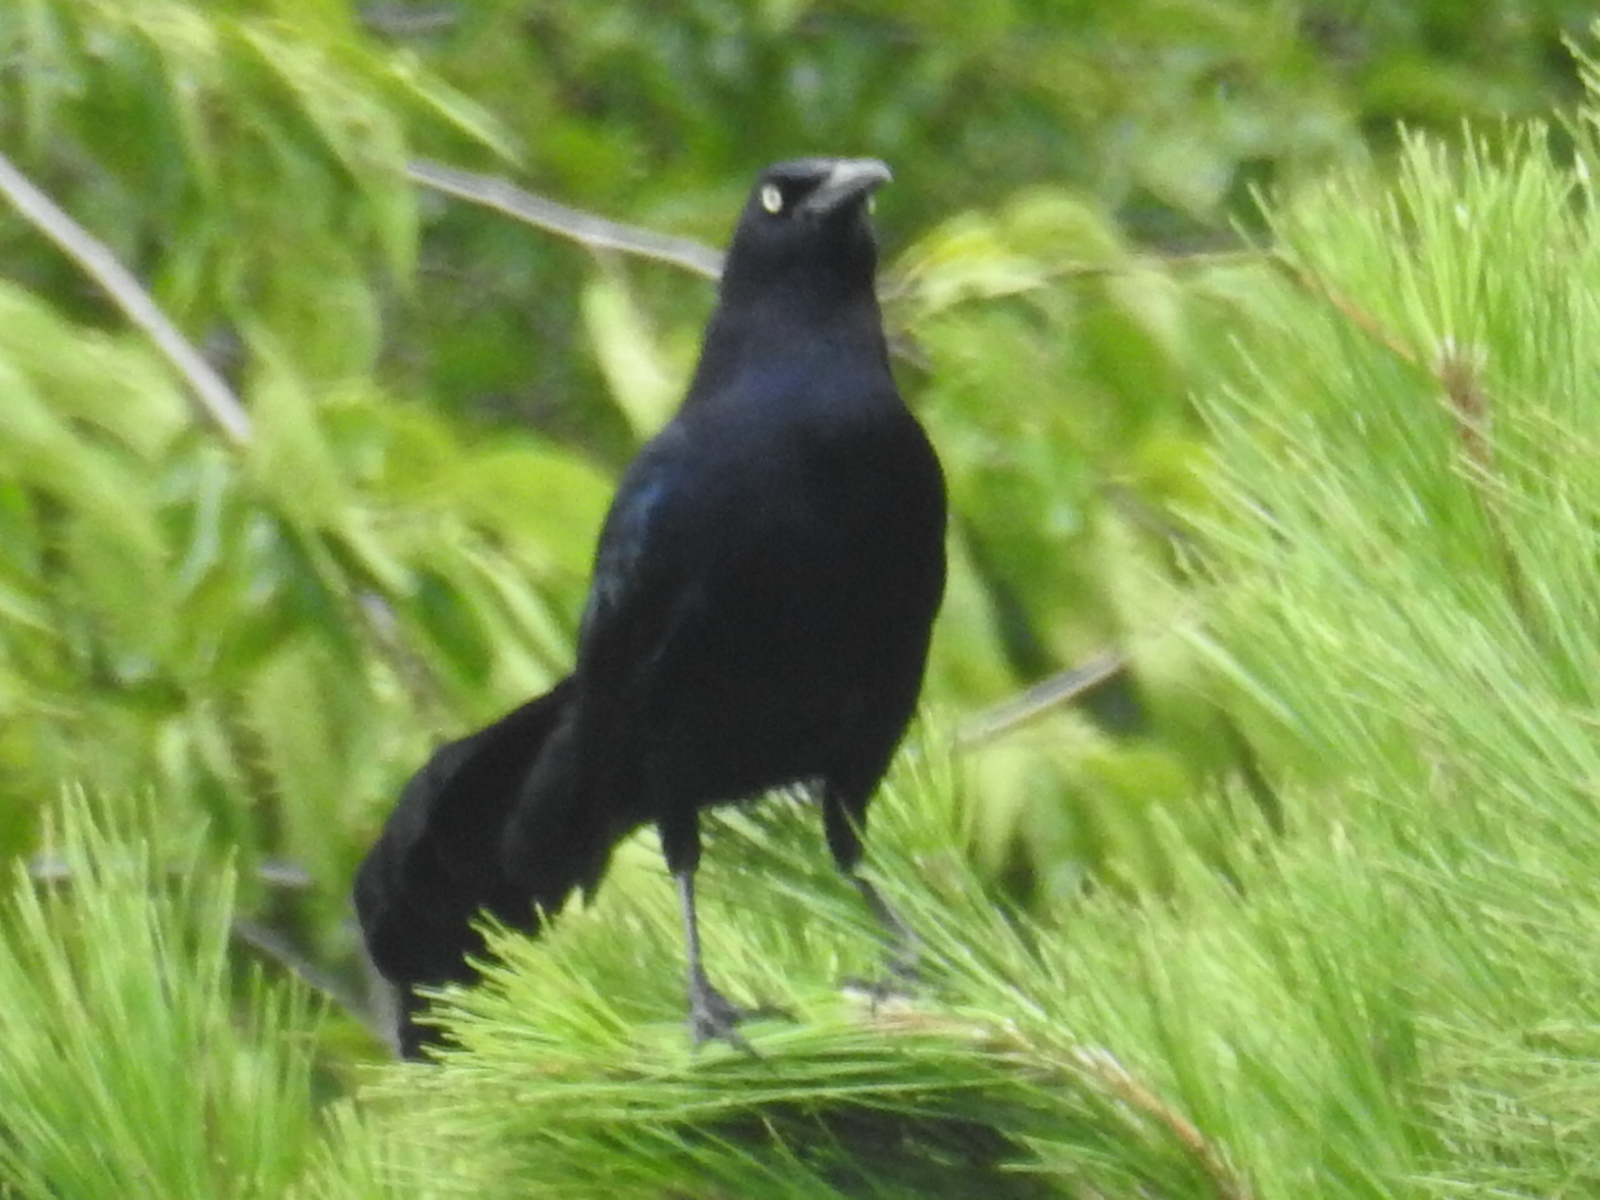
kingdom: Animalia
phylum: Chordata
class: Aves
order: Passeriformes
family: Icteridae
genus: Quiscalus
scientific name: Quiscalus mexicanus
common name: Great-tailed grackle
